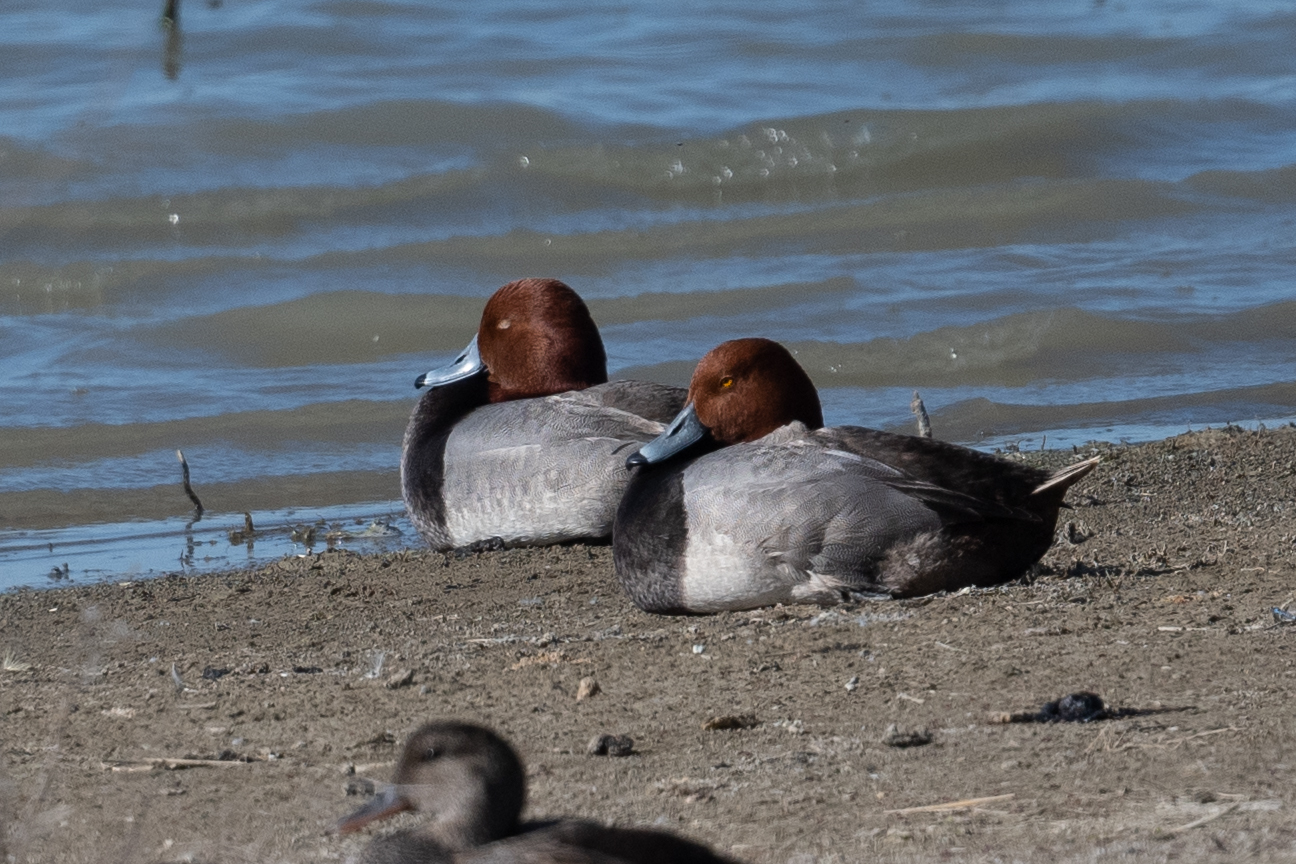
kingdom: Animalia
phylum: Chordata
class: Aves
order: Anseriformes
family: Anatidae
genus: Aythya
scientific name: Aythya americana
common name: Redhead
